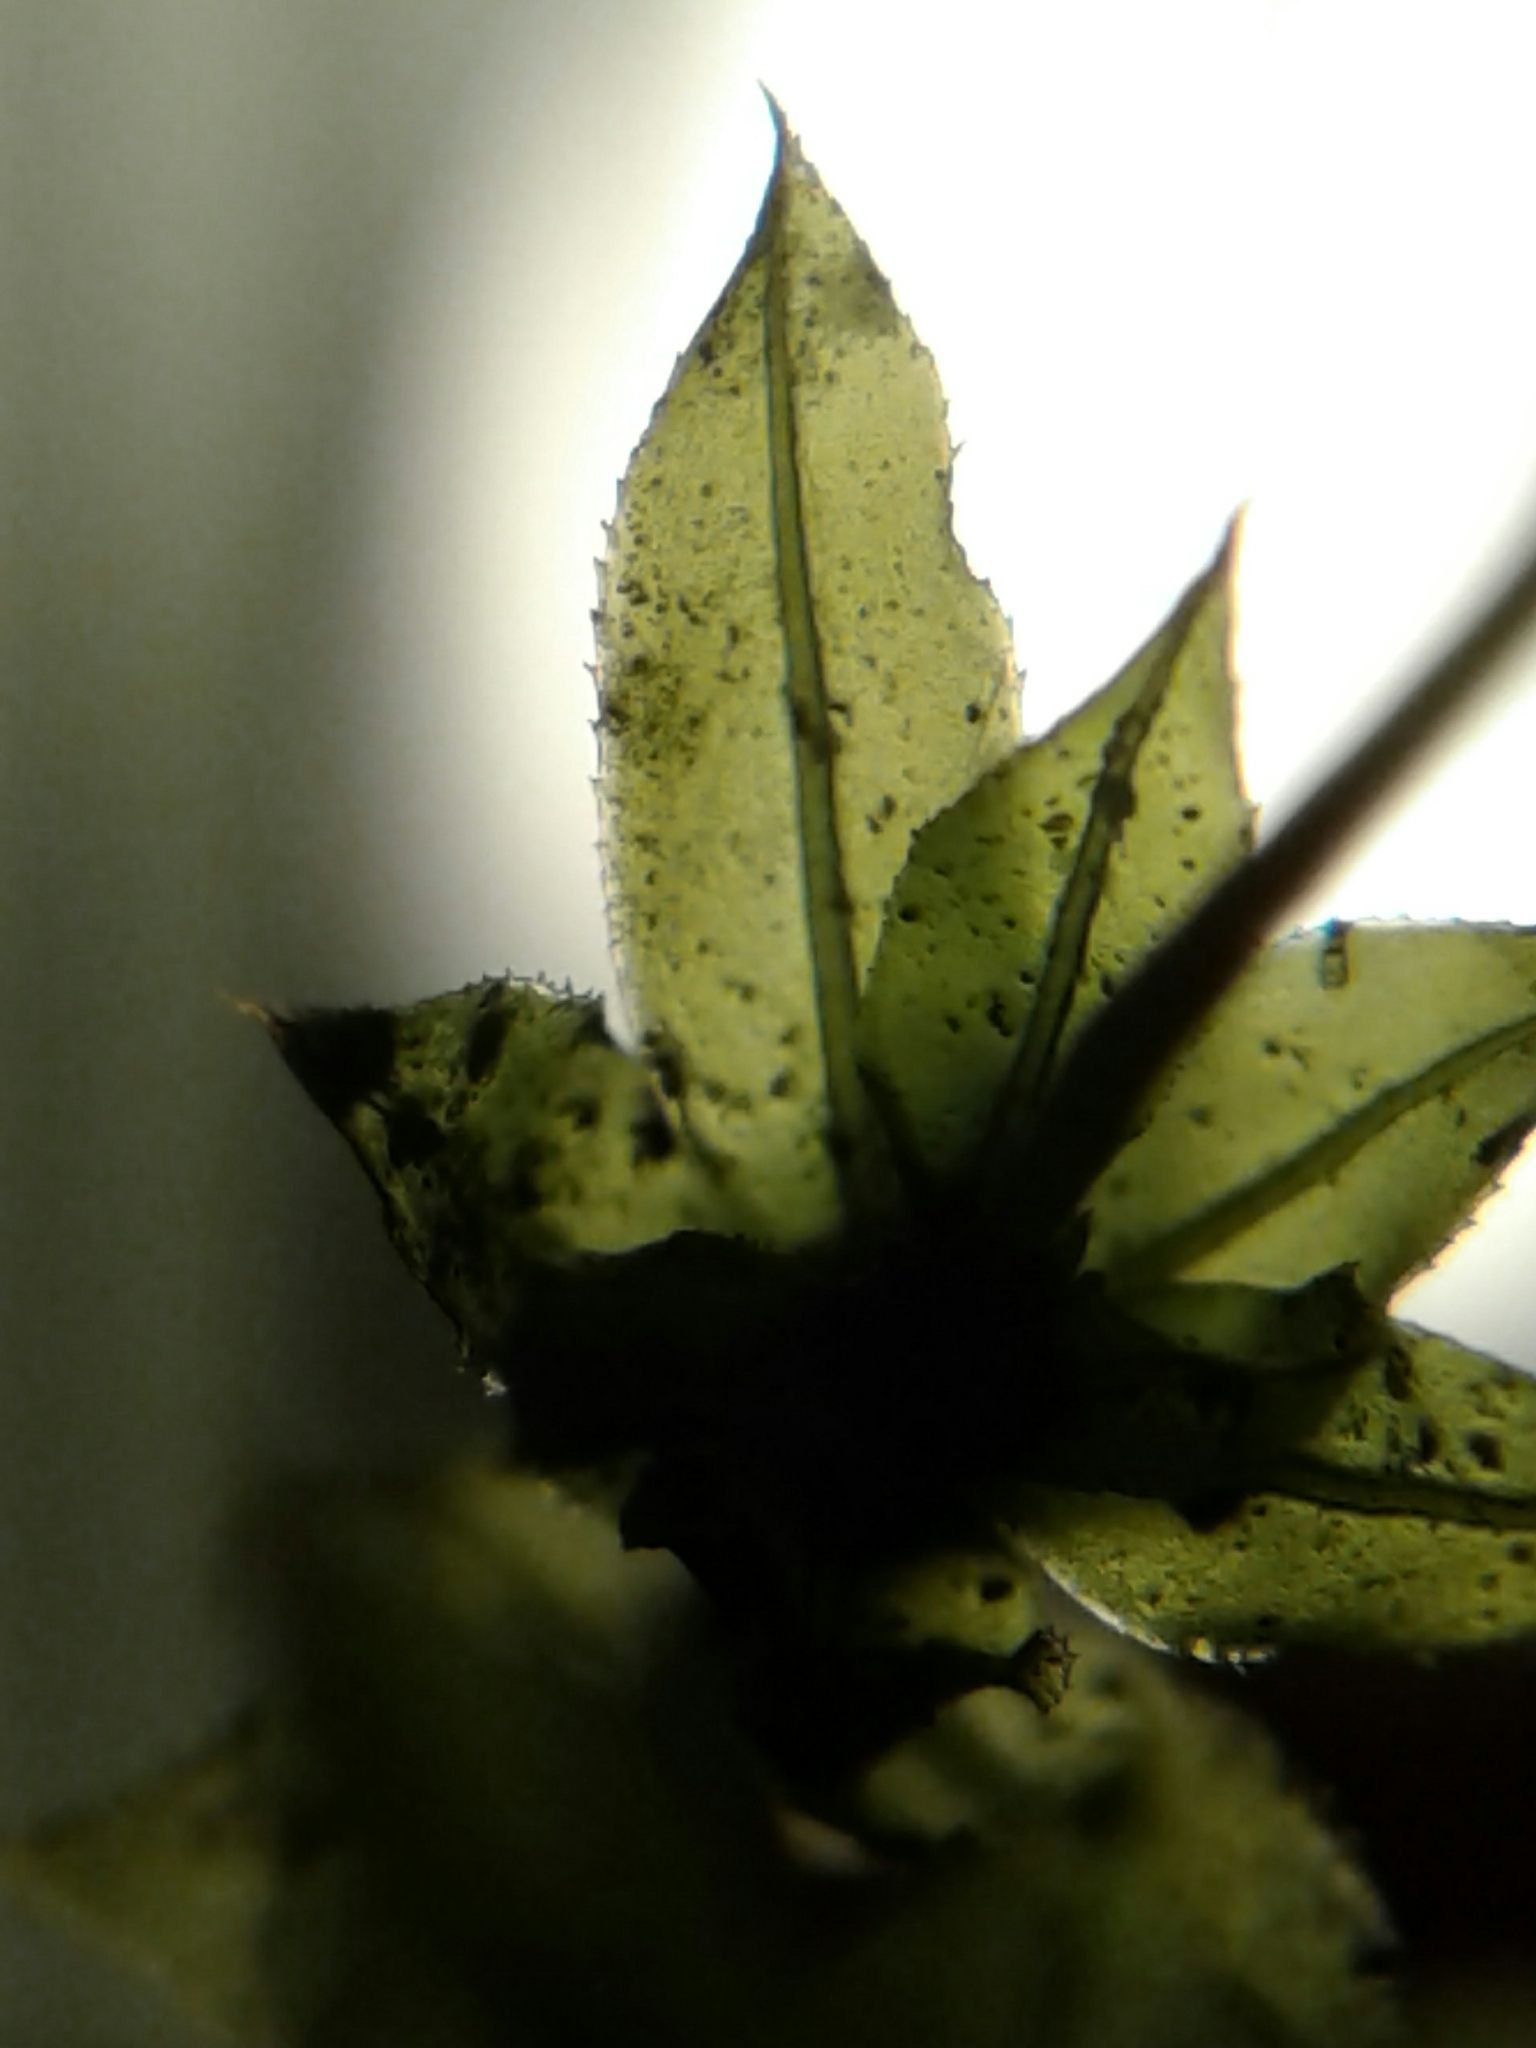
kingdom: Plantae
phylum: Bryophyta
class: Bryopsida
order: Bryales
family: Mniaceae
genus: Plagiomnium
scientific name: Plagiomnium cuspidatum
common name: Woodsy leafy moss
